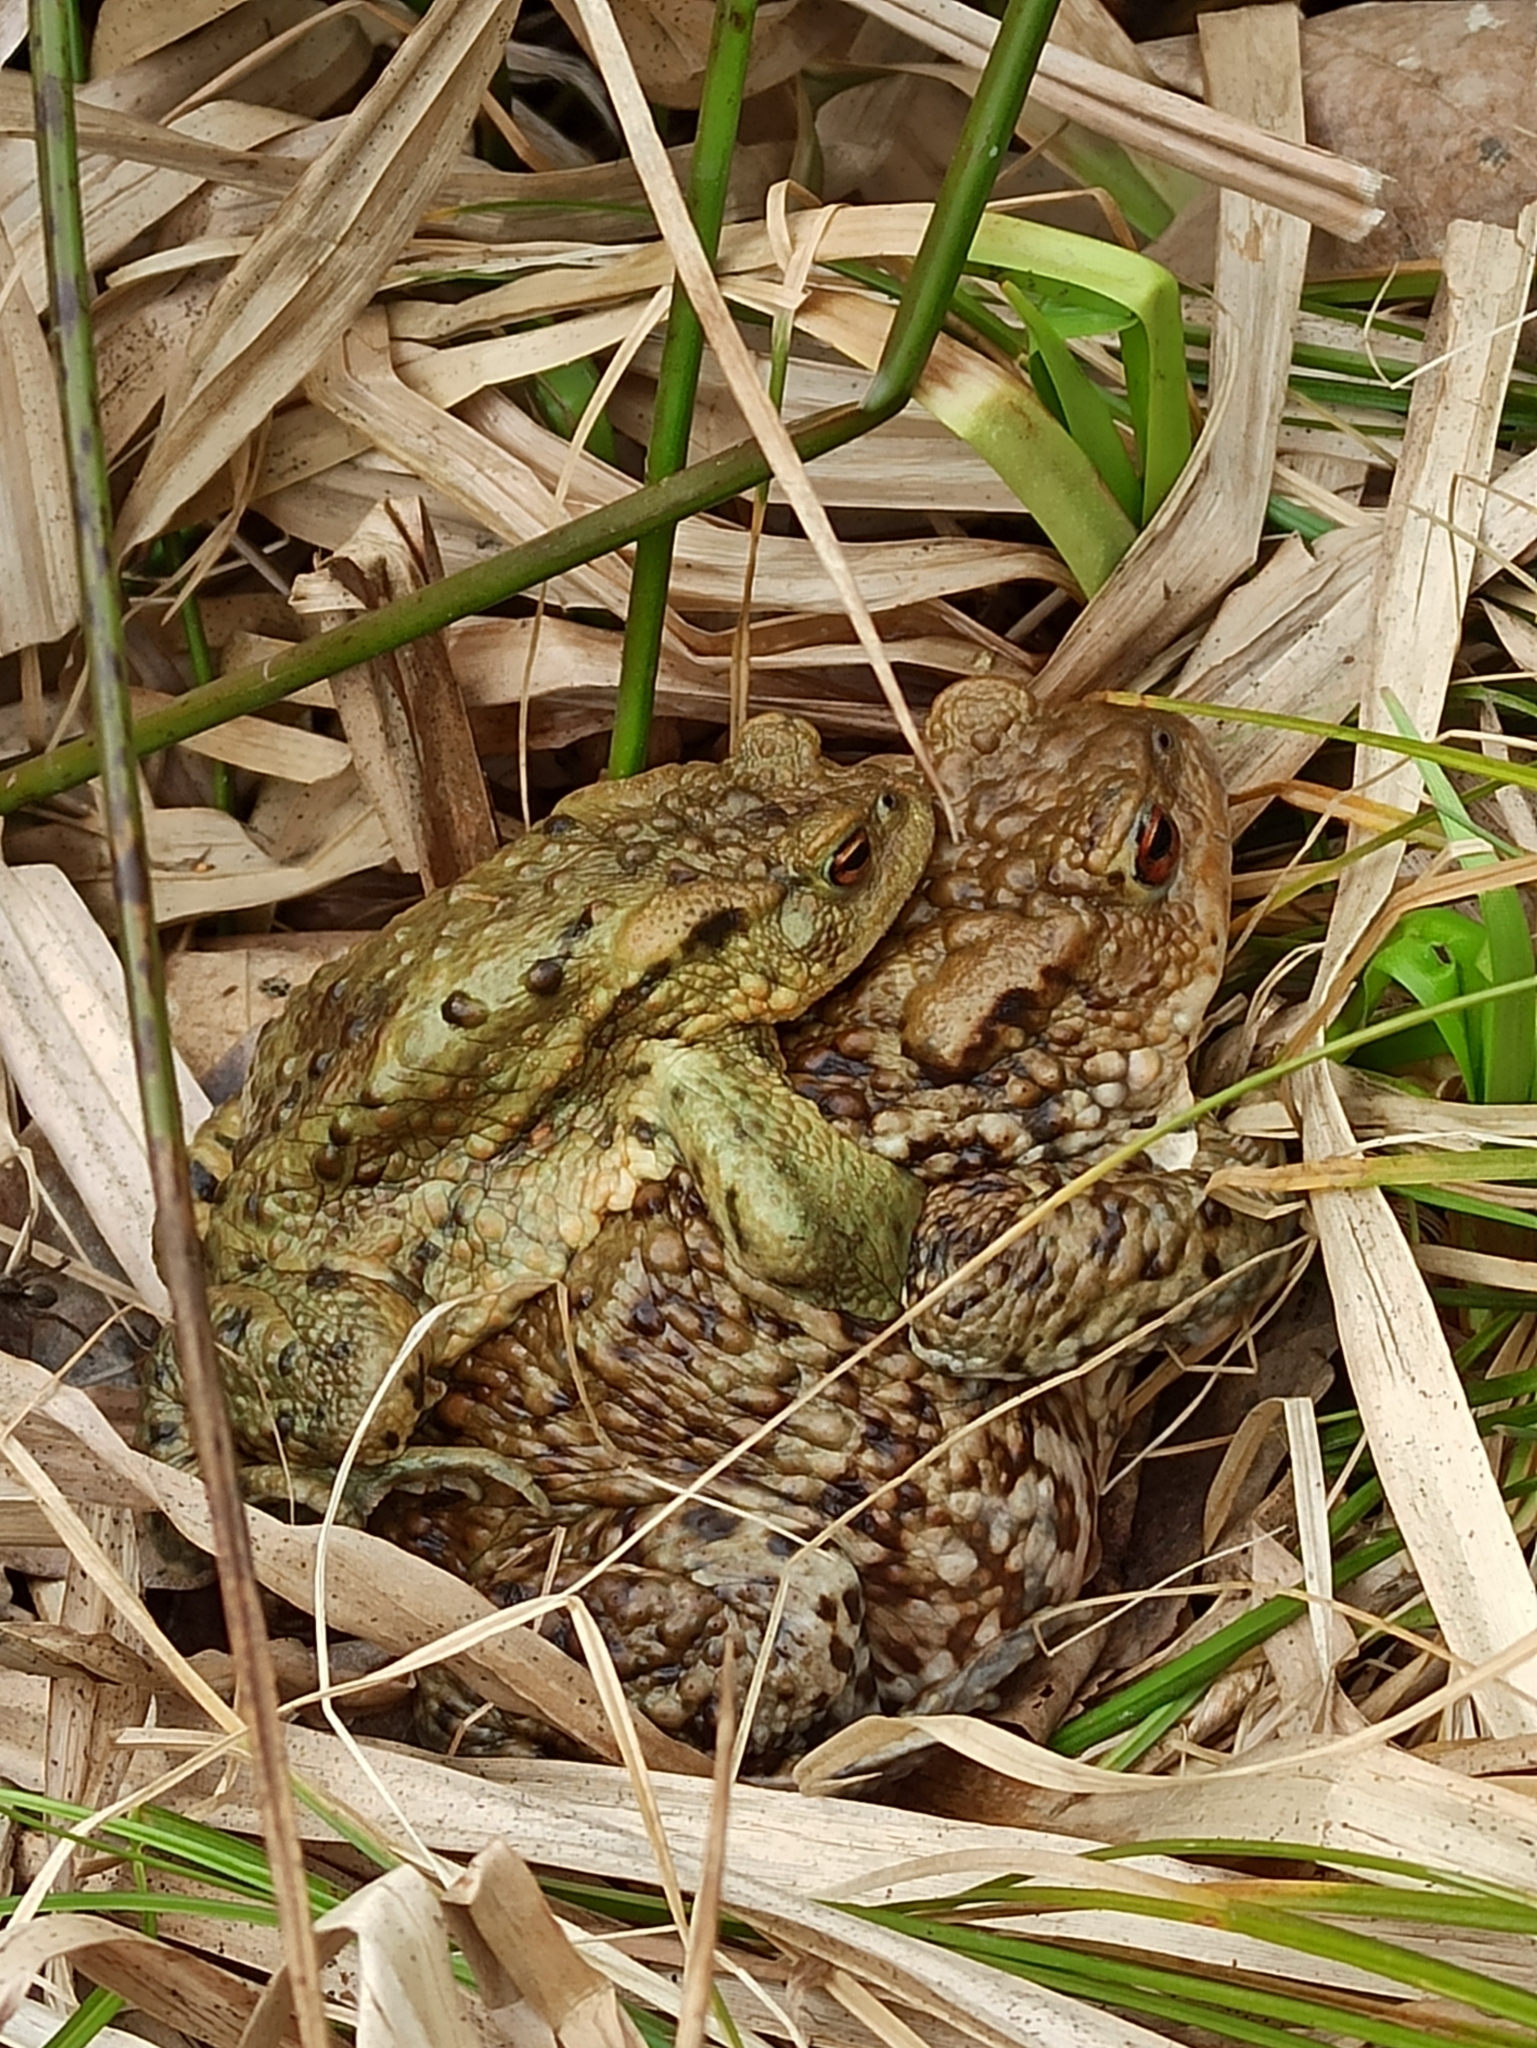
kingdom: Animalia
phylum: Chordata
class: Amphibia
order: Anura
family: Bufonidae
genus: Bufo
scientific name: Bufo bufo
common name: Common toad
